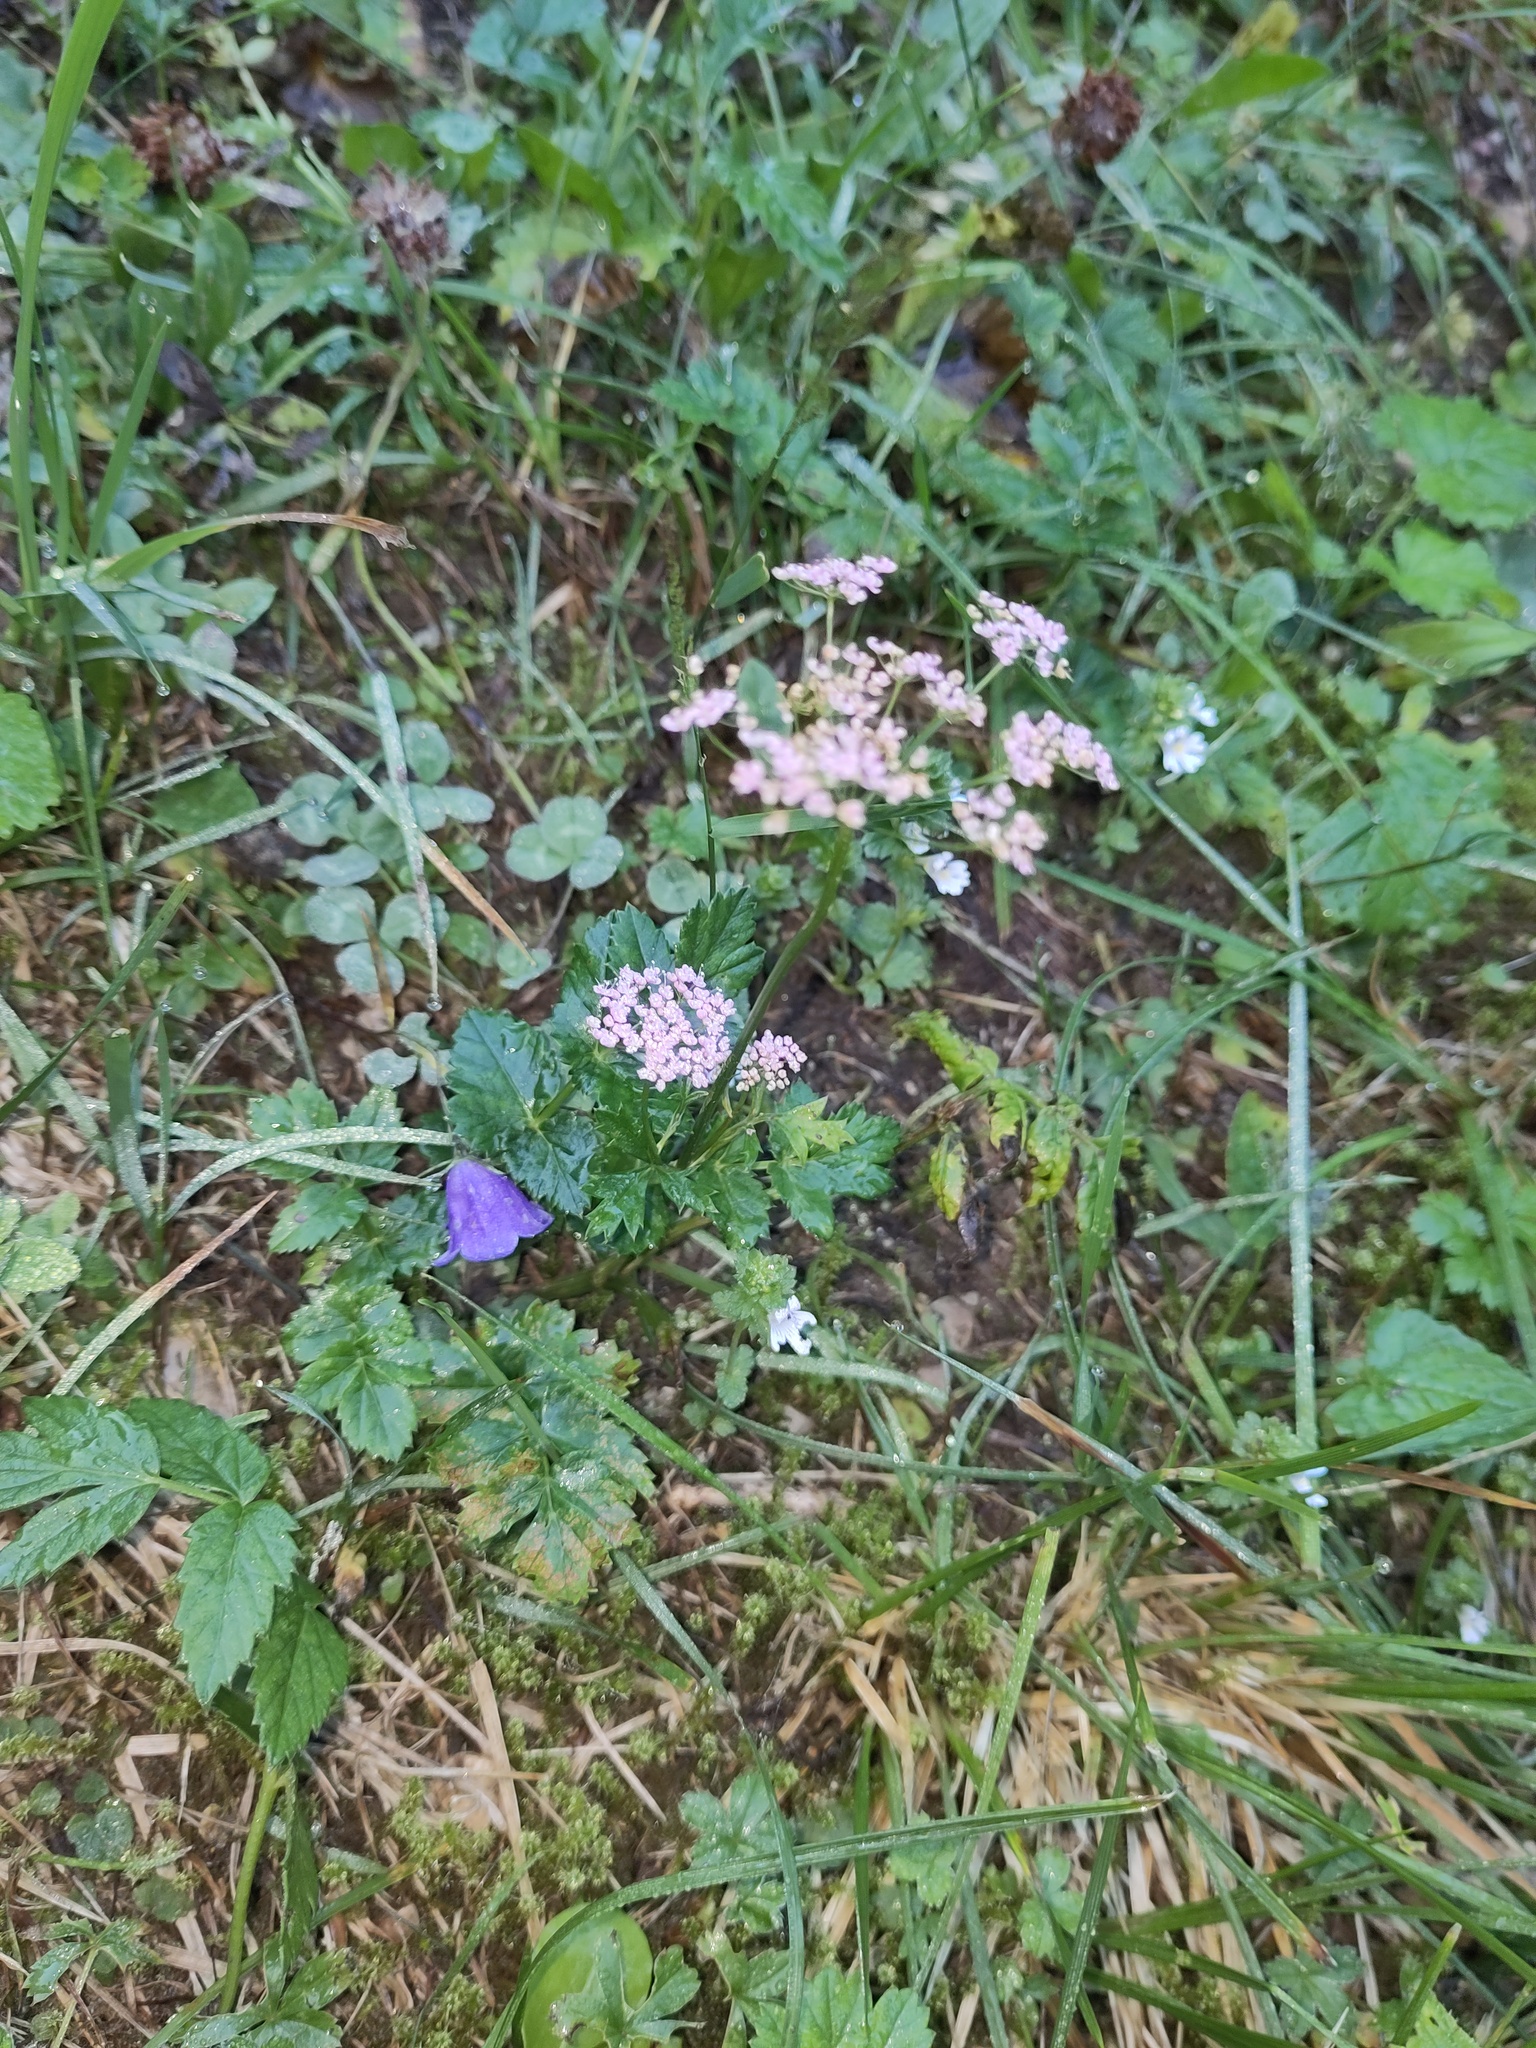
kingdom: Plantae
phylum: Tracheophyta
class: Magnoliopsida
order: Apiales
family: Apiaceae
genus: Pimpinella
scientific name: Pimpinella major
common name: Greater burnet-saxifrage
